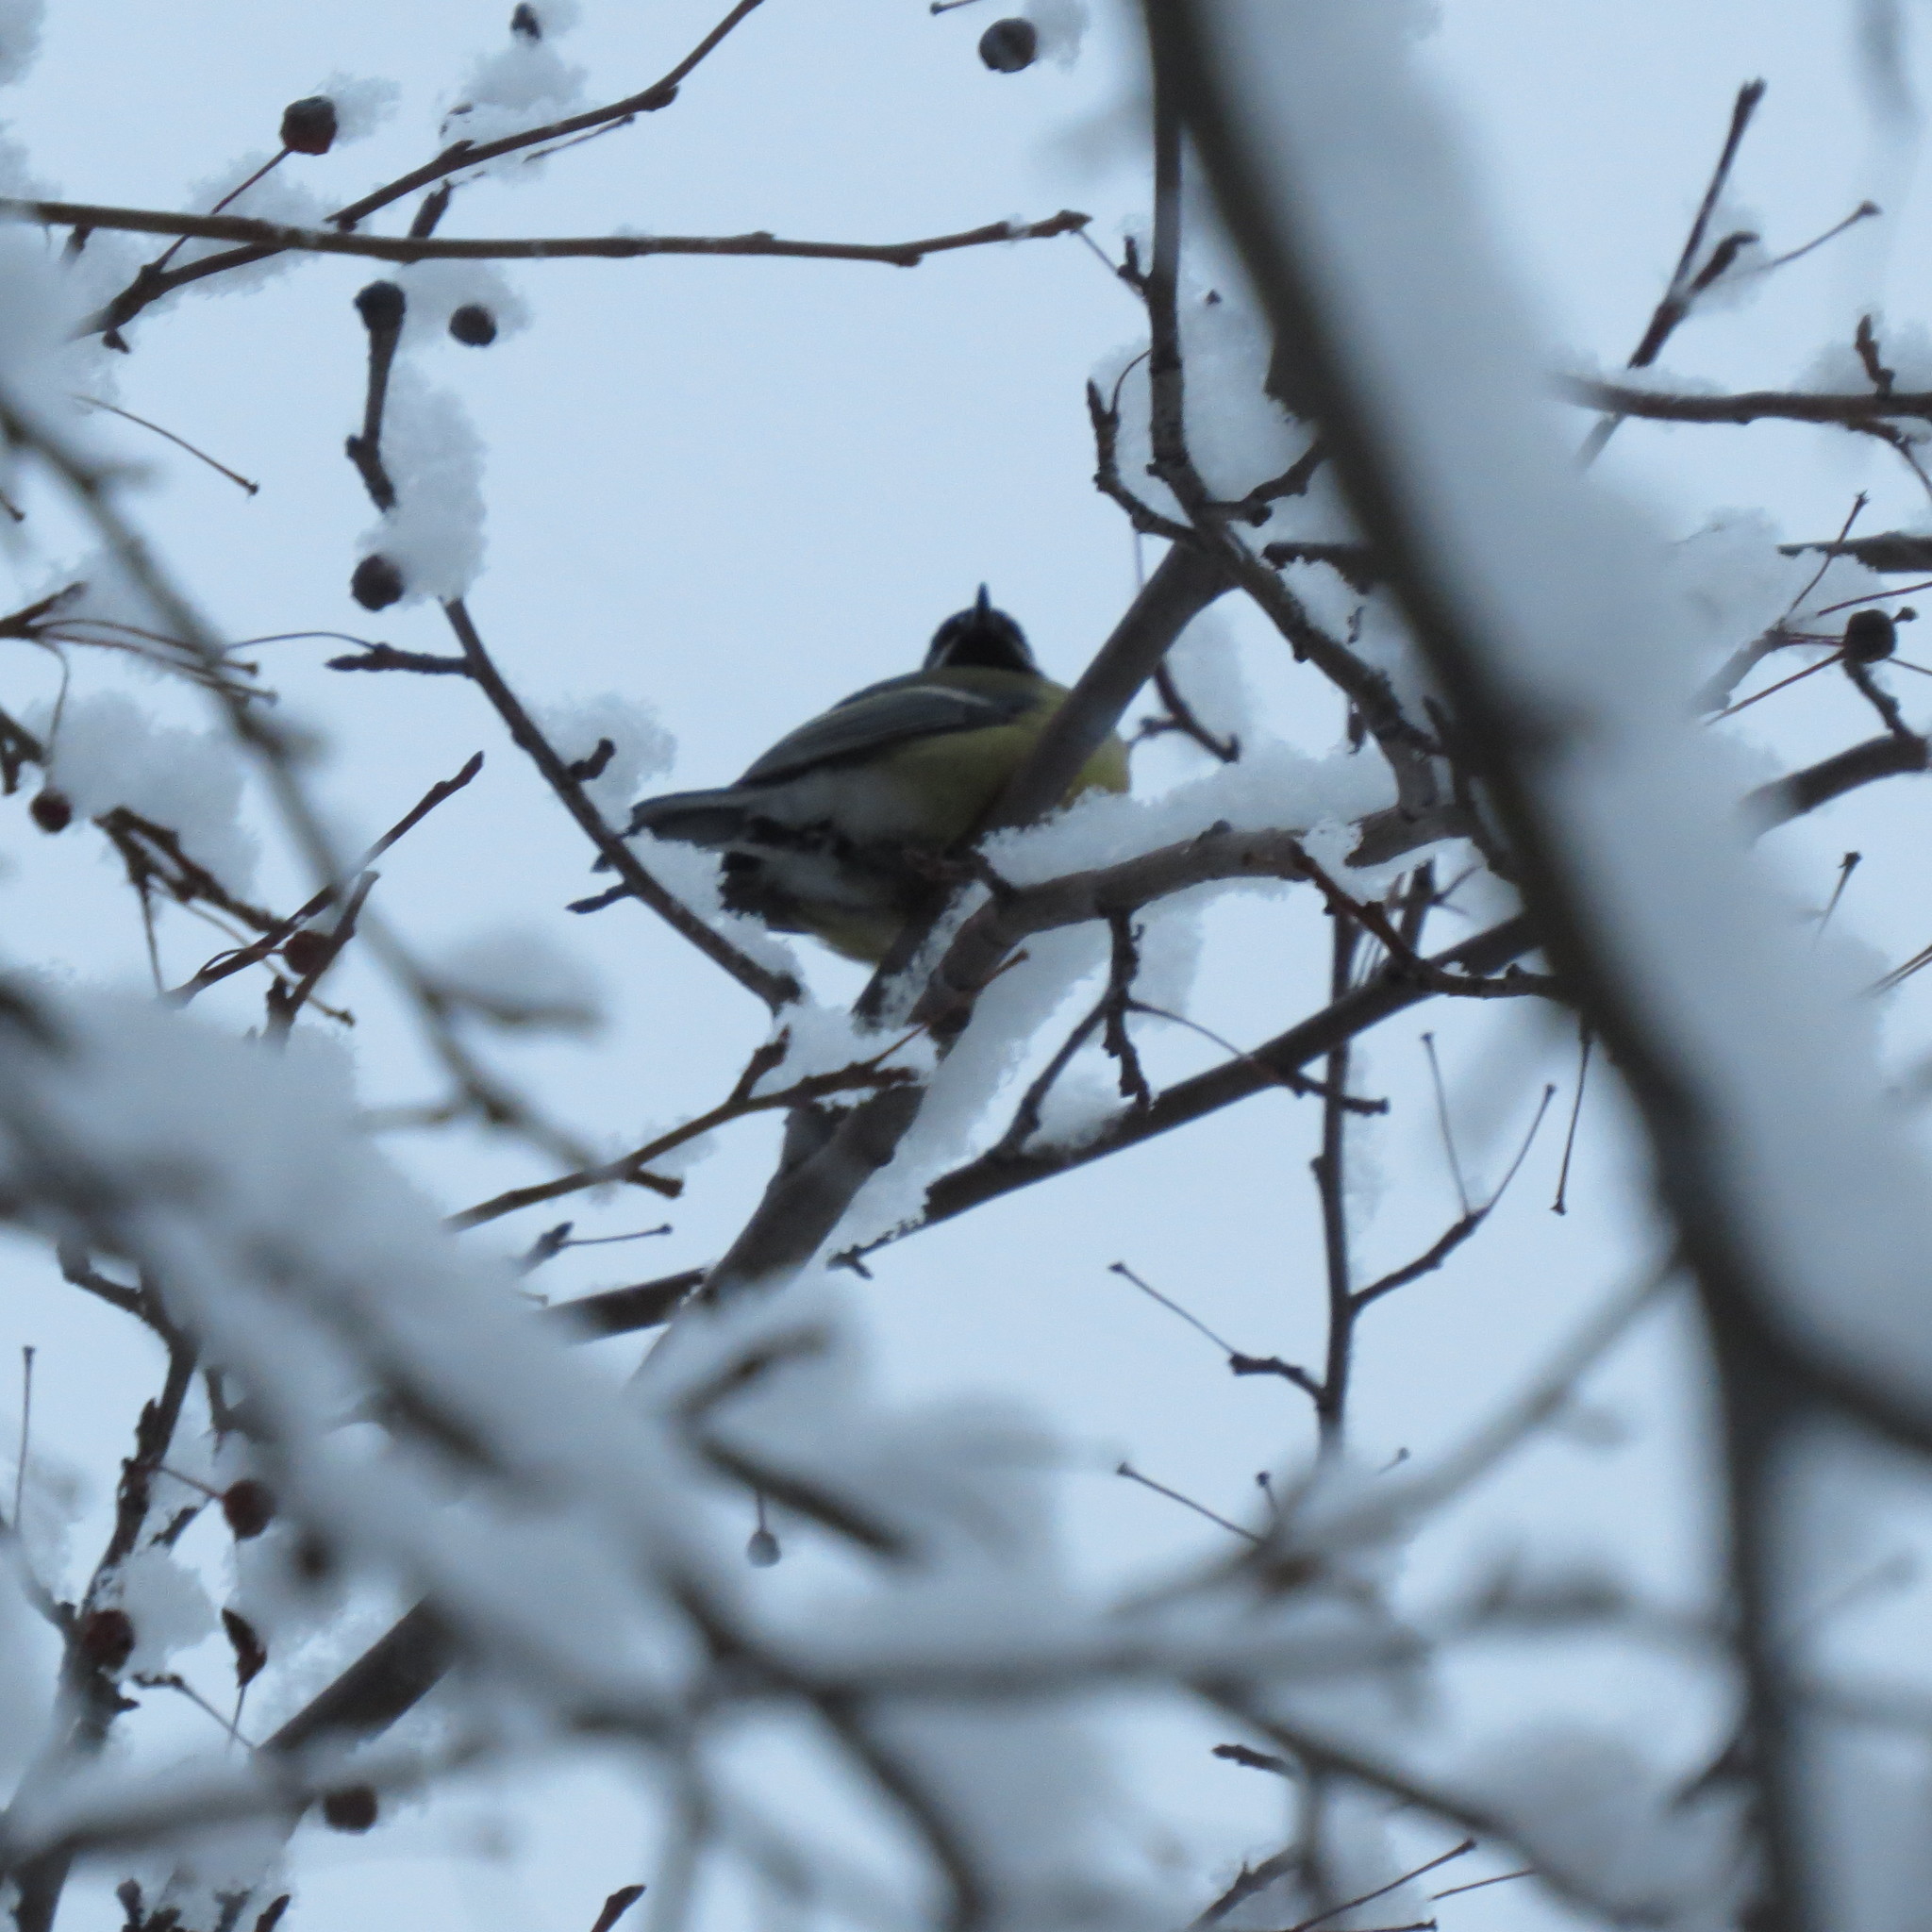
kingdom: Animalia
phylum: Chordata
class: Aves
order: Passeriformes
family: Paridae
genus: Parus
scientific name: Parus major
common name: Great tit
